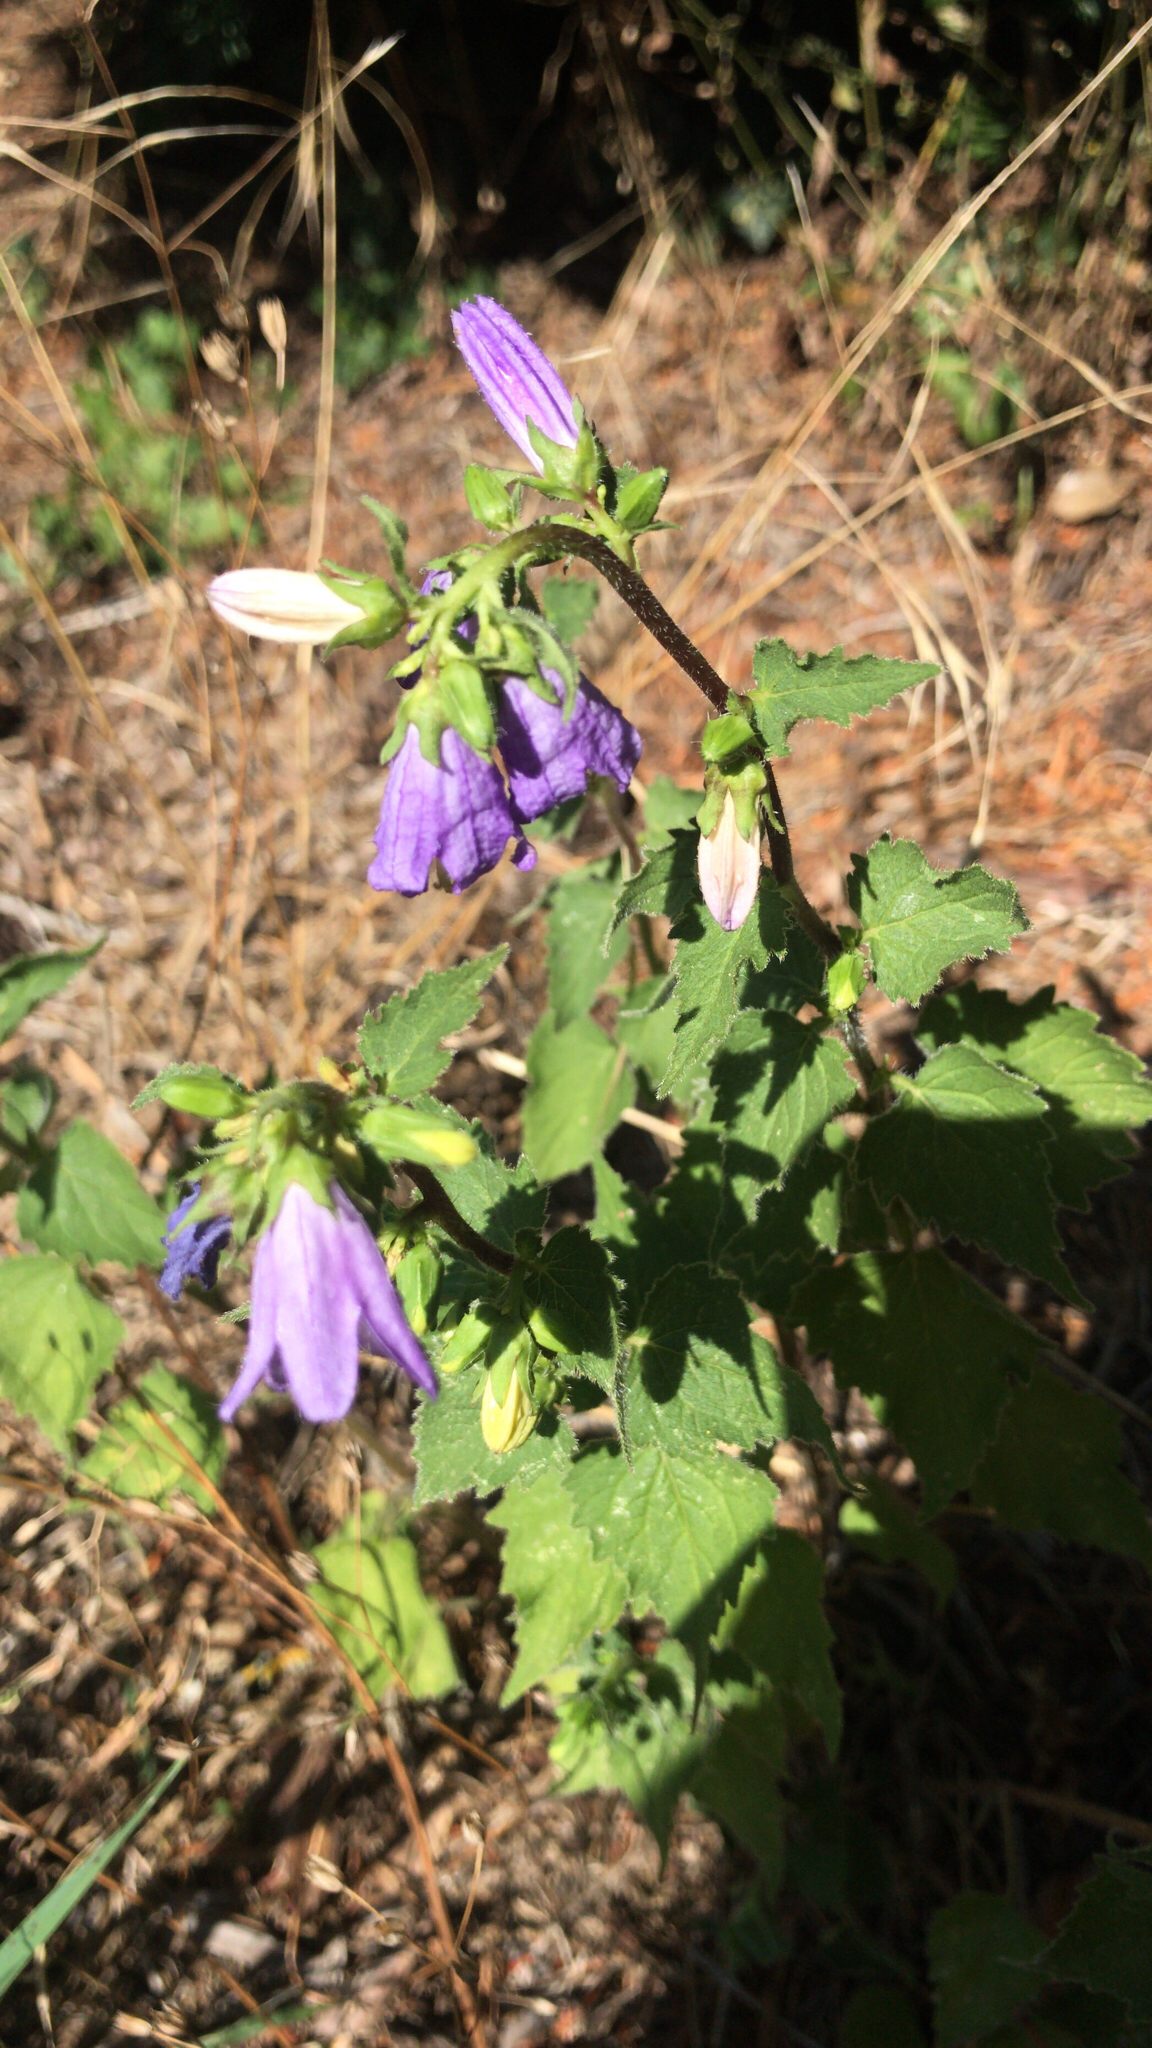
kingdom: Plantae
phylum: Tracheophyta
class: Magnoliopsida
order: Asterales
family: Campanulaceae
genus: Campanula
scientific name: Campanula trachelium
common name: Nettle-leaved bellflower
